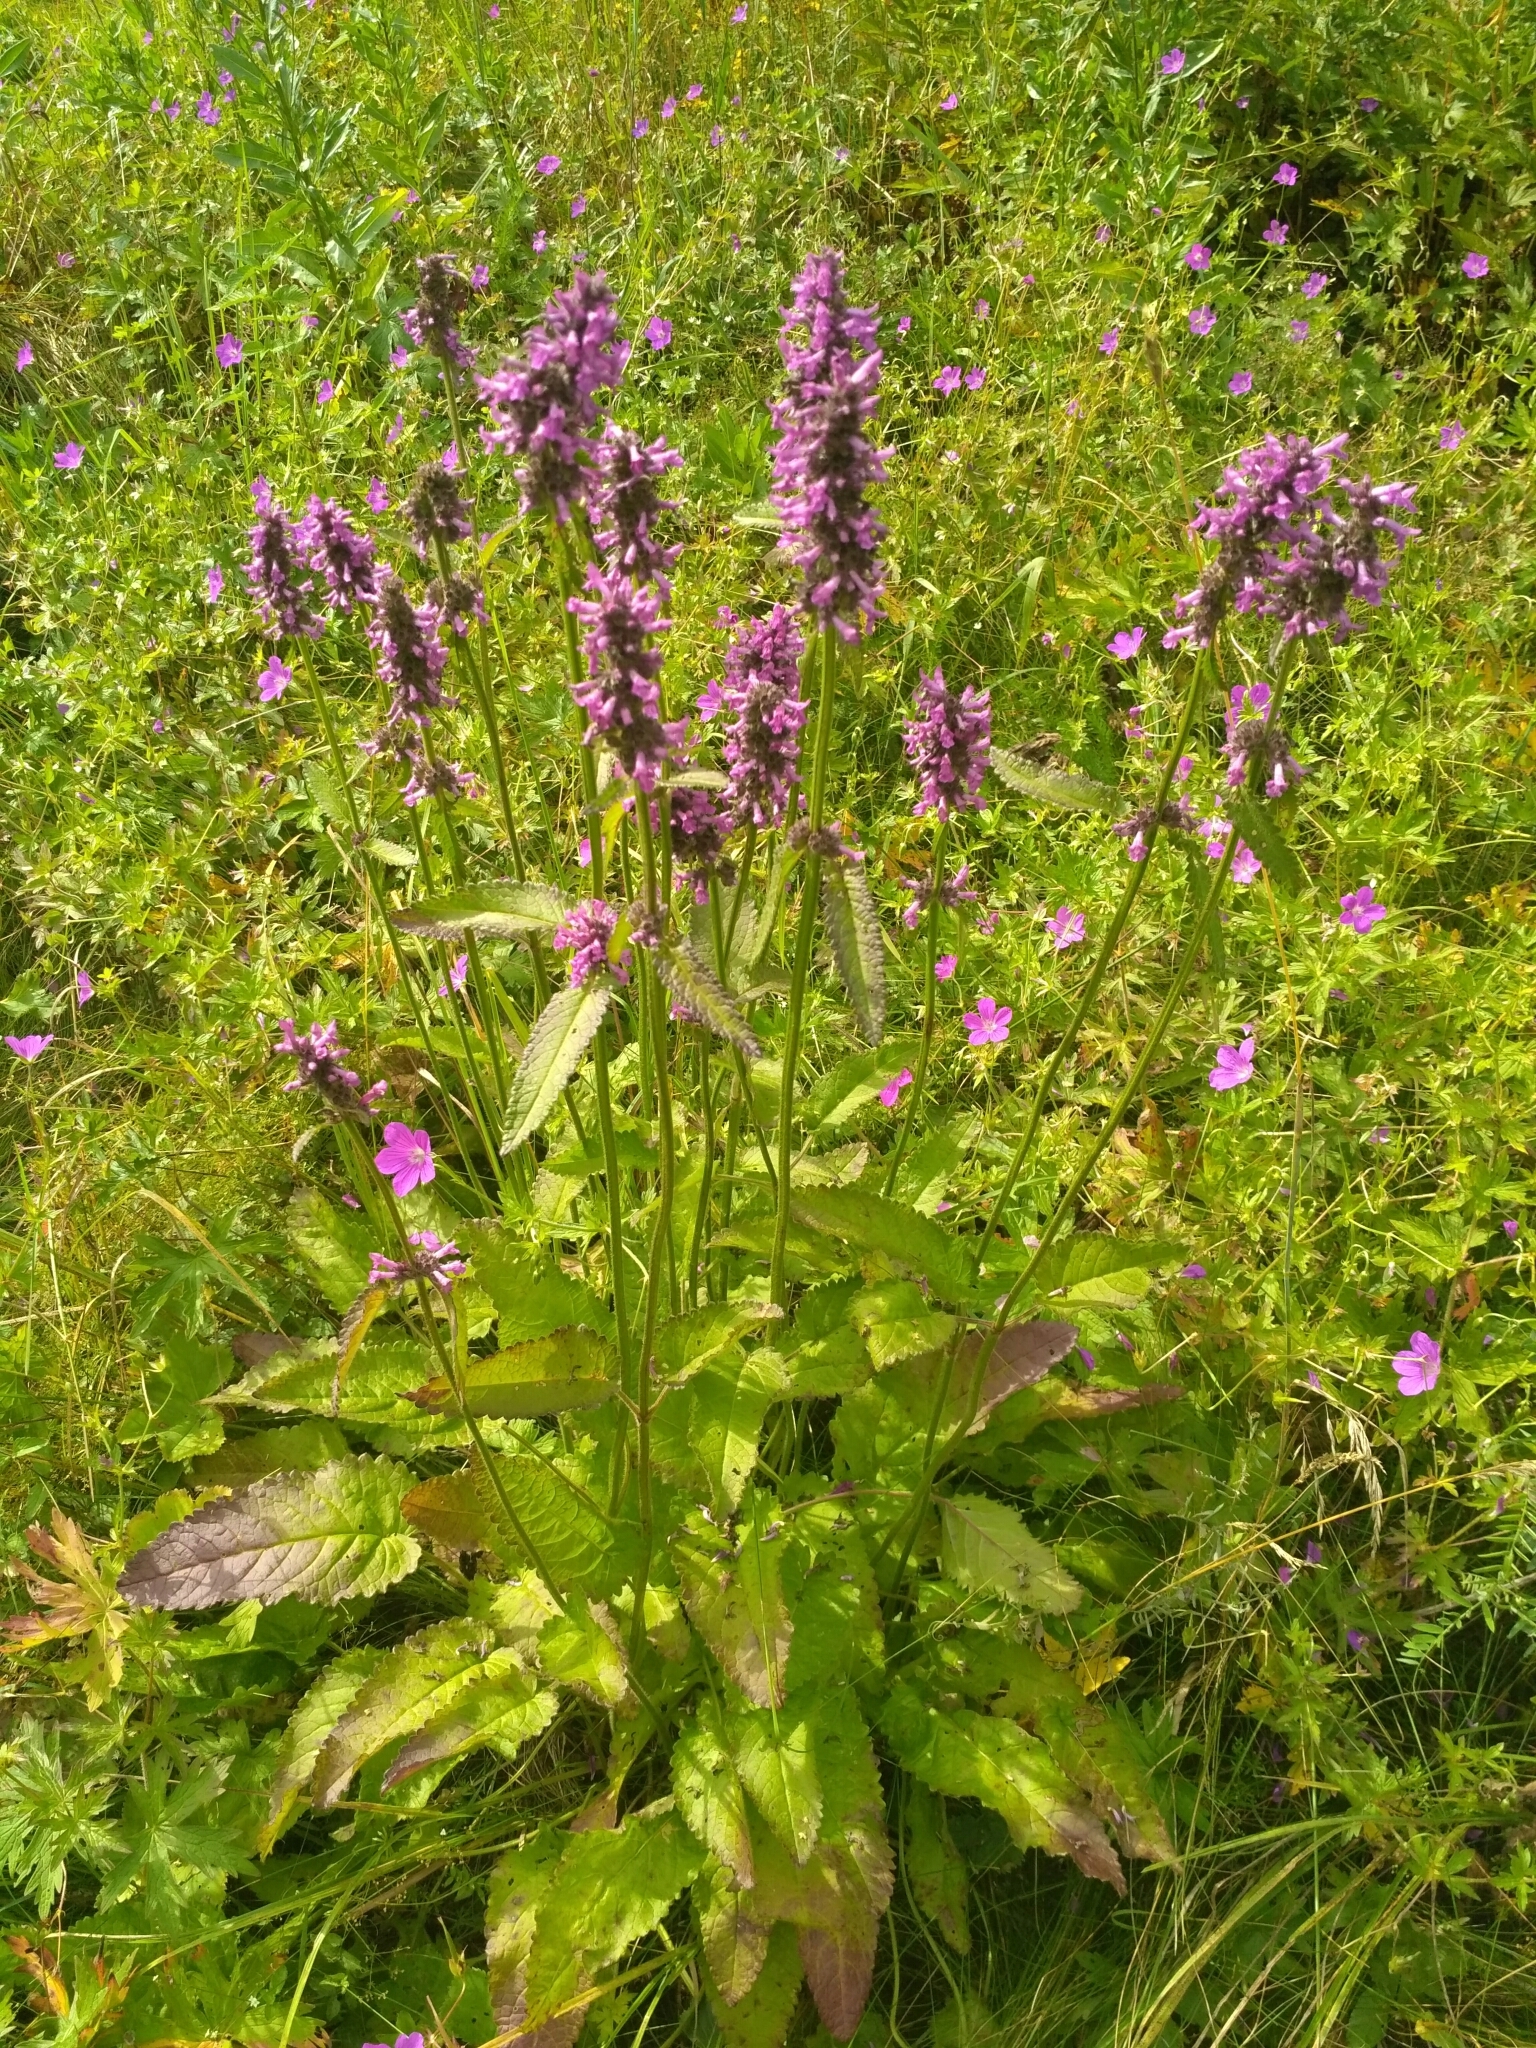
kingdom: Plantae
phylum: Tracheophyta
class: Magnoliopsida
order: Lamiales
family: Lamiaceae
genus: Betonica
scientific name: Betonica officinalis
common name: Bishop's-wort
